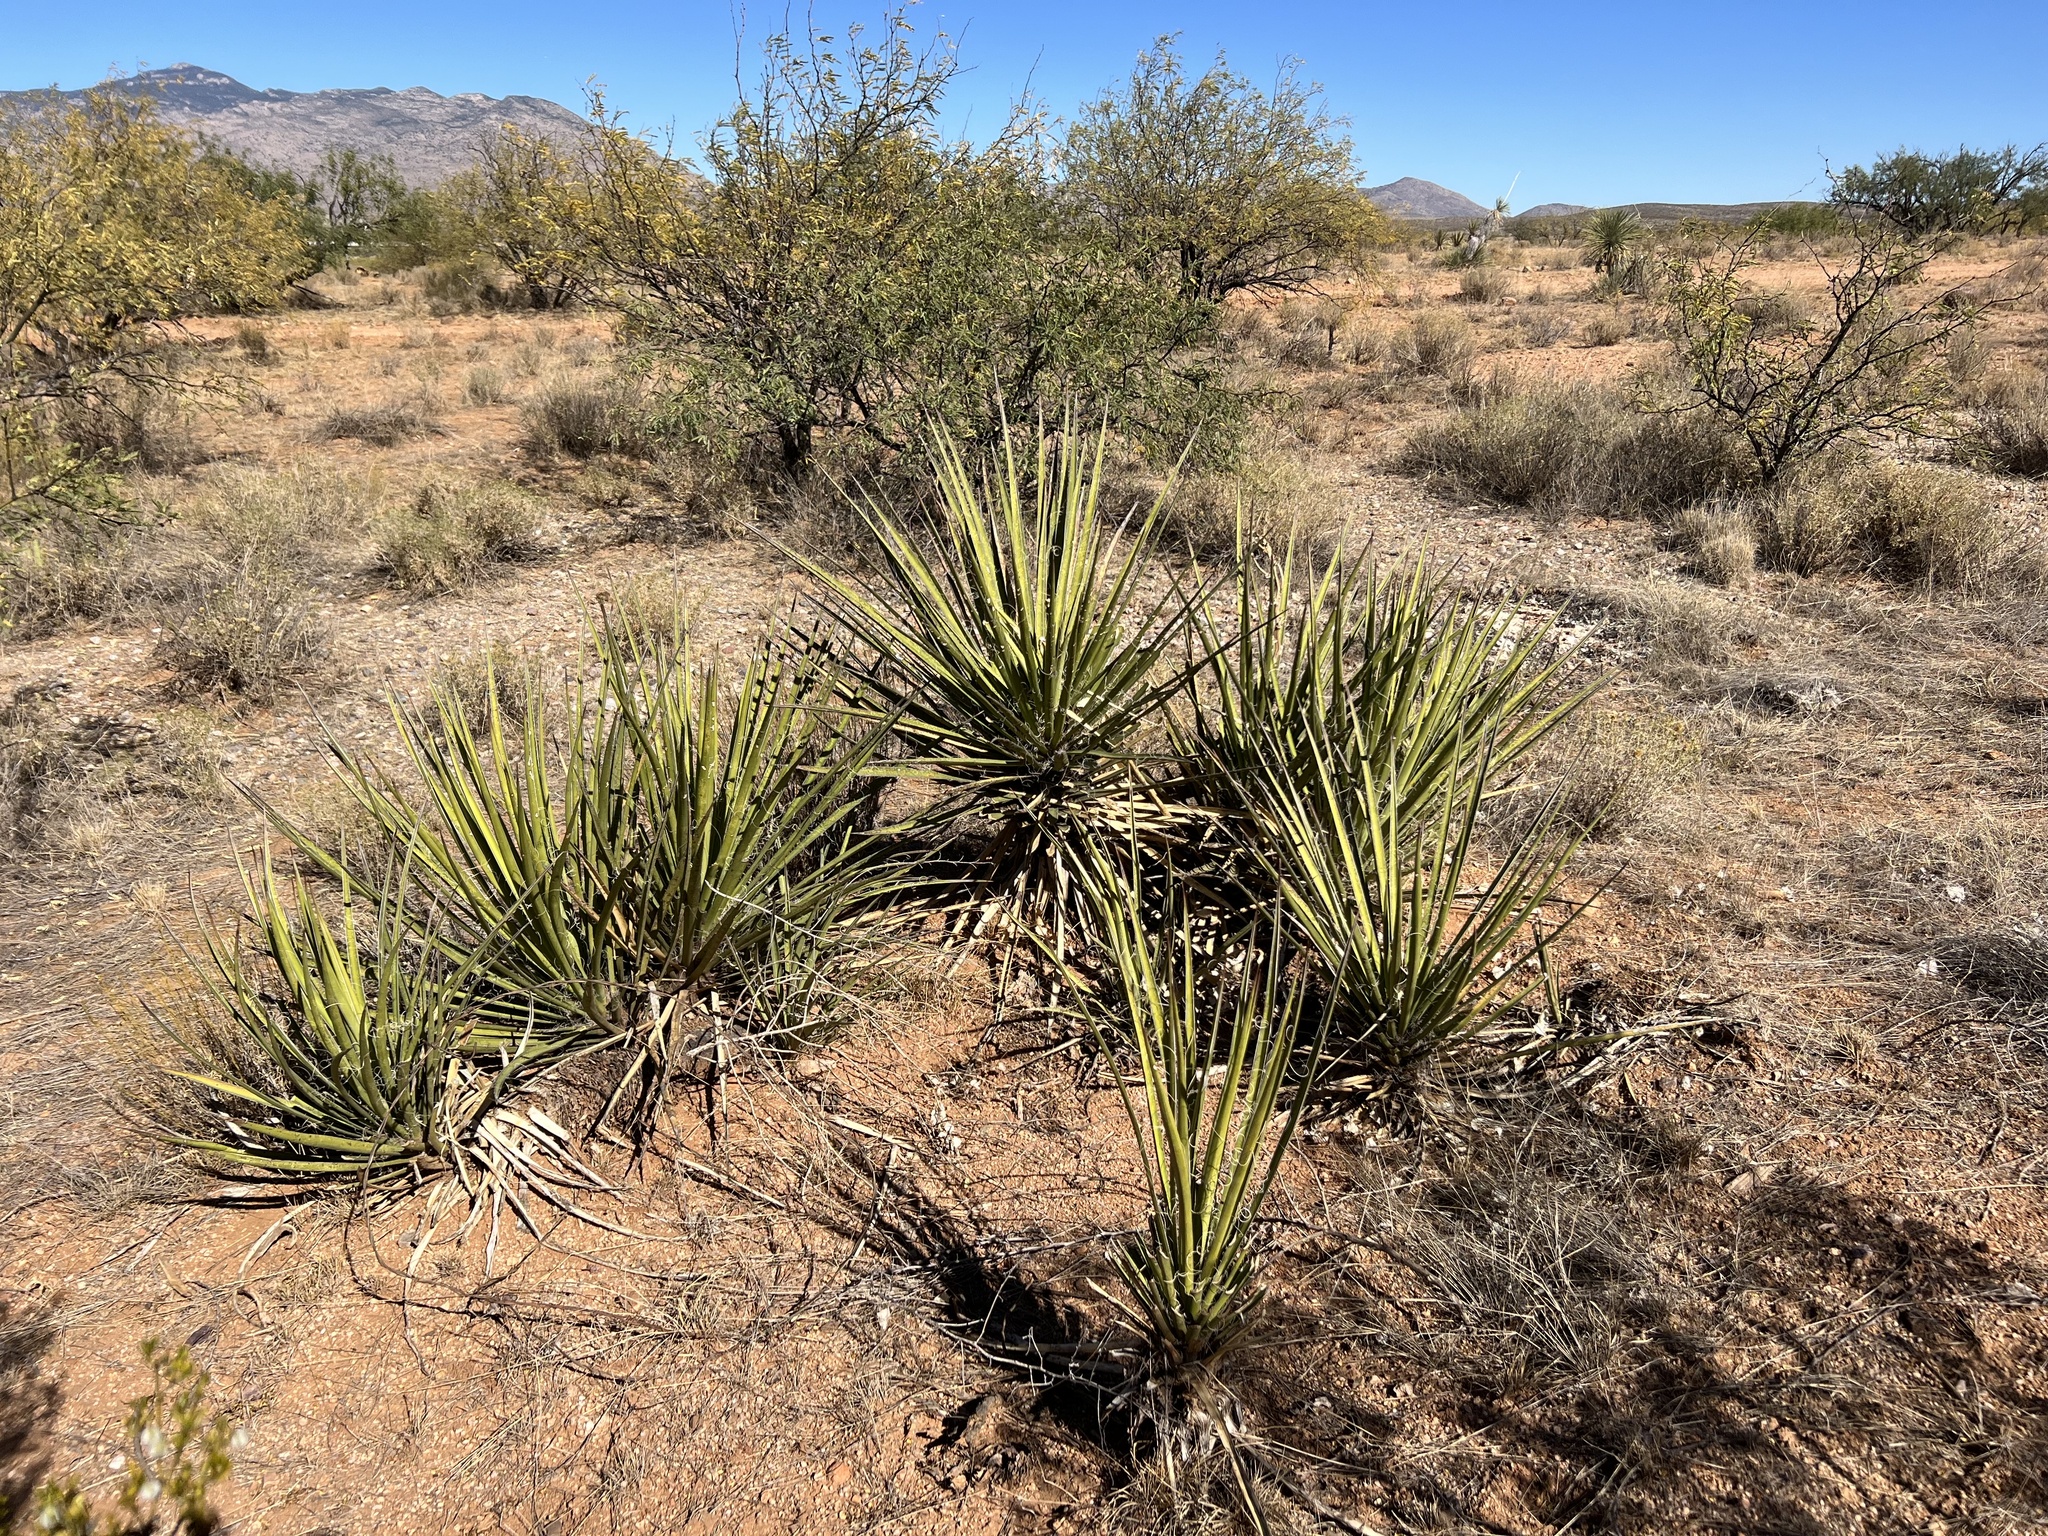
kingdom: Plantae
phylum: Tracheophyta
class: Liliopsida
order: Asparagales
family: Asparagaceae
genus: Yucca
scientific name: Yucca baccata
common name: Banana yucca
